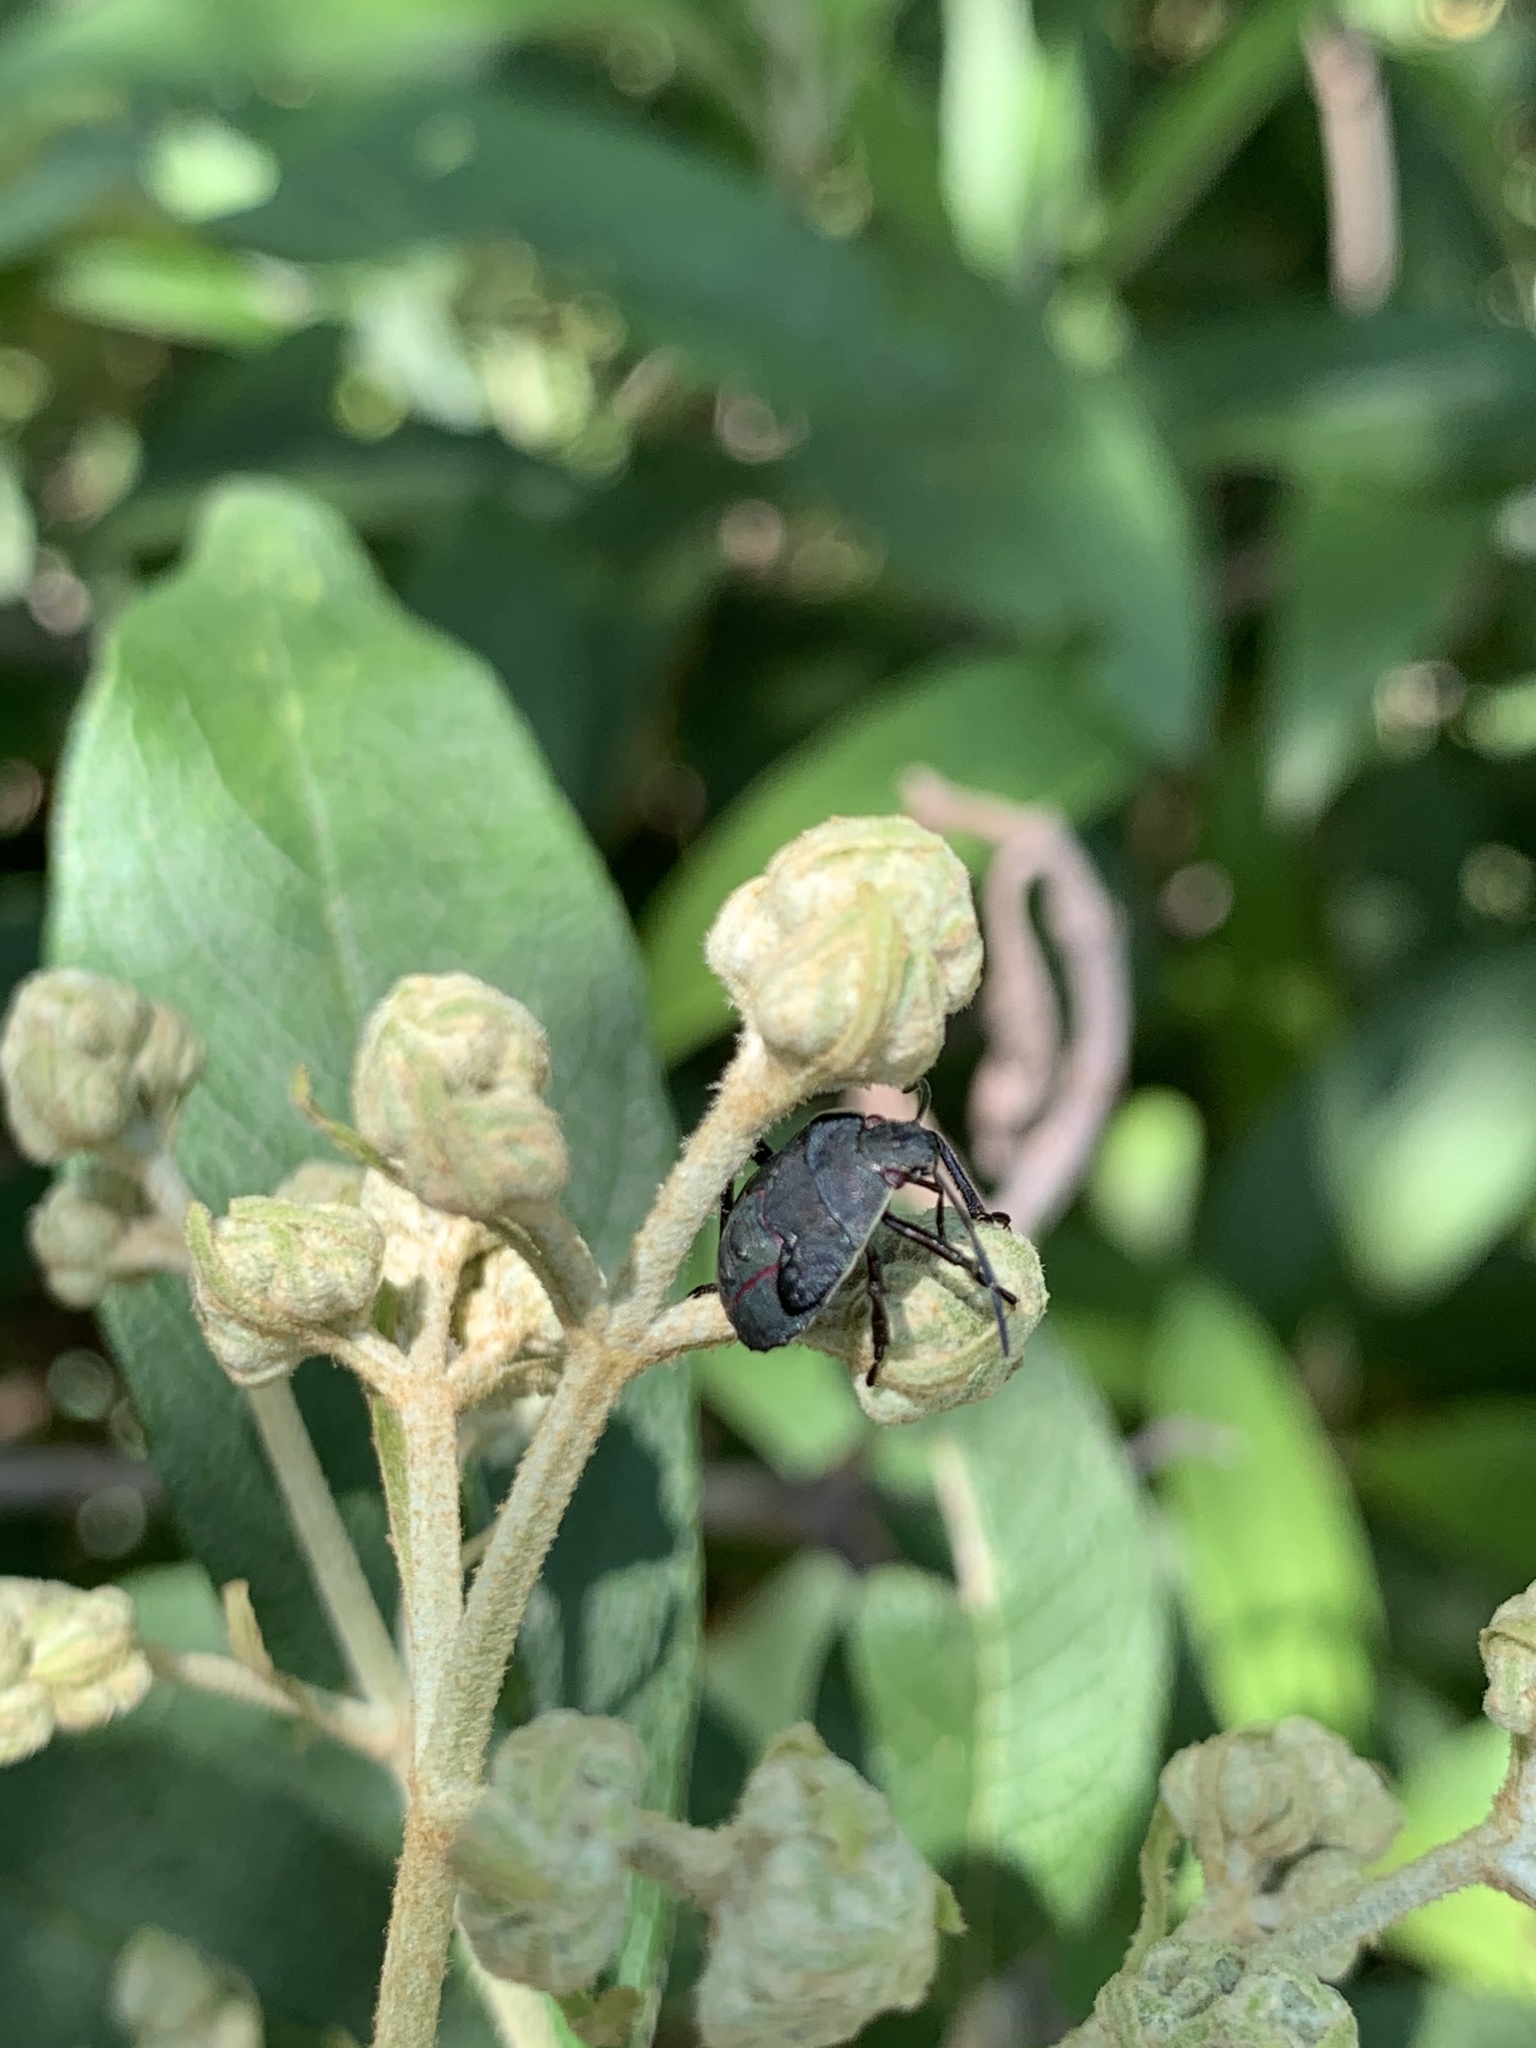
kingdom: Animalia
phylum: Arthropoda
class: Insecta
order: Hemiptera
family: Pentatomidae
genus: Pellaea
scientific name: Pellaea stictica
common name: Stink bug
